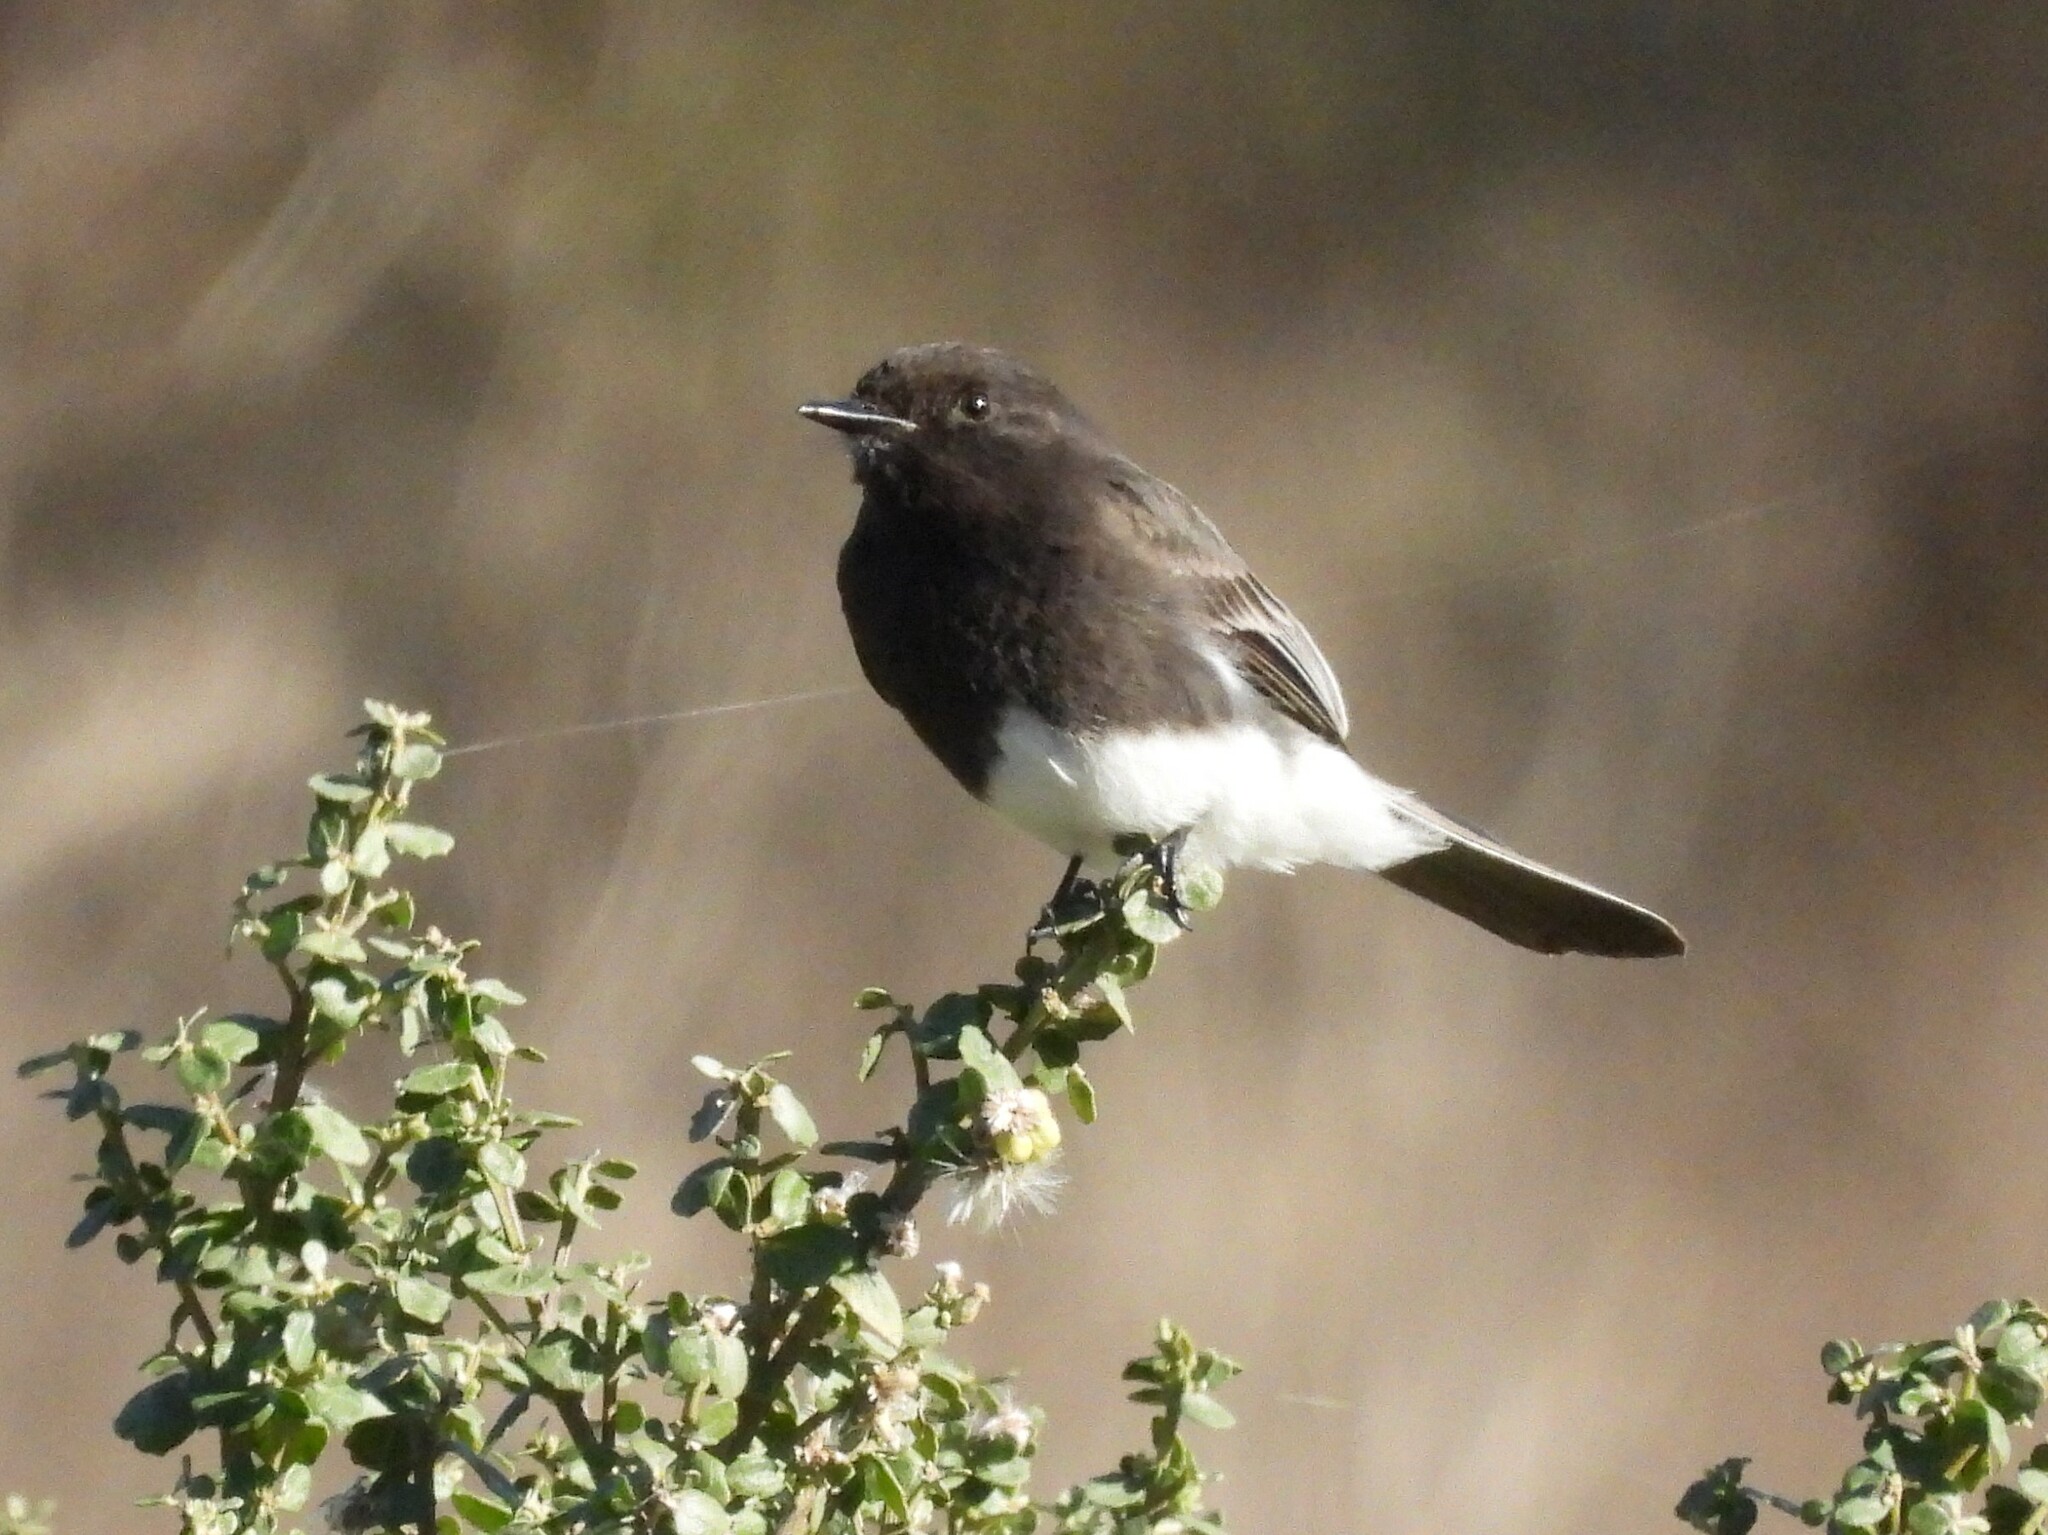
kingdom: Animalia
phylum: Chordata
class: Aves
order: Passeriformes
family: Tyrannidae
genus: Sayornis
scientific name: Sayornis nigricans
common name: Black phoebe
